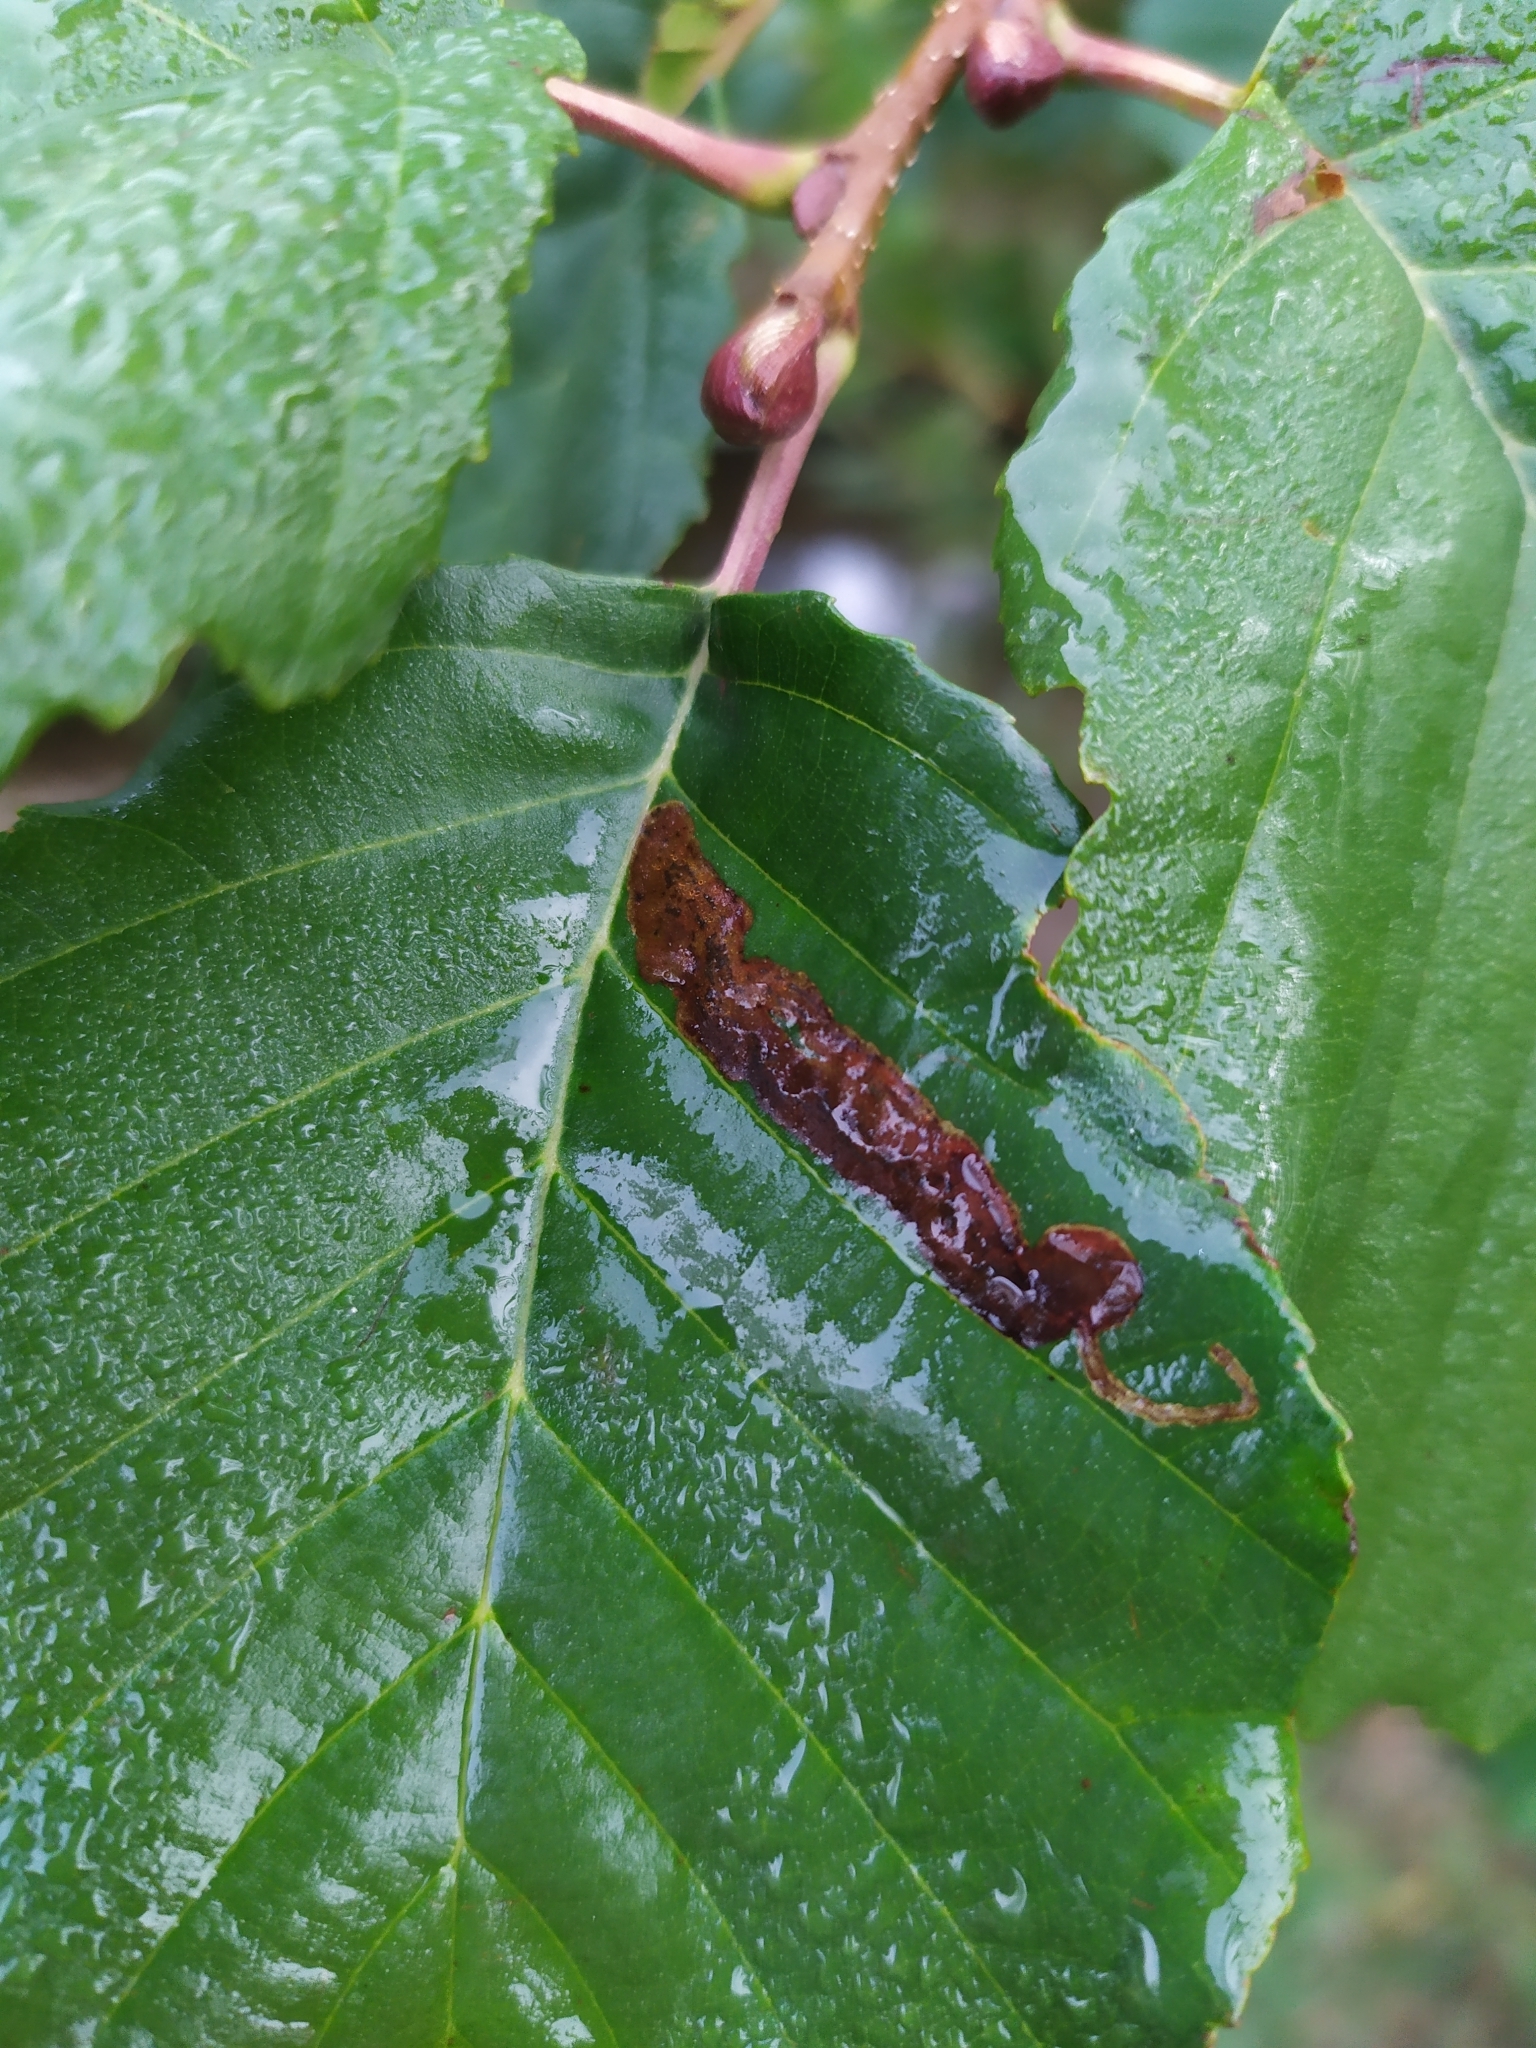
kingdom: Animalia
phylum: Arthropoda
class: Insecta
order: Diptera
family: Agromyzidae
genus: Agromyza
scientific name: Agromyza alnivora
